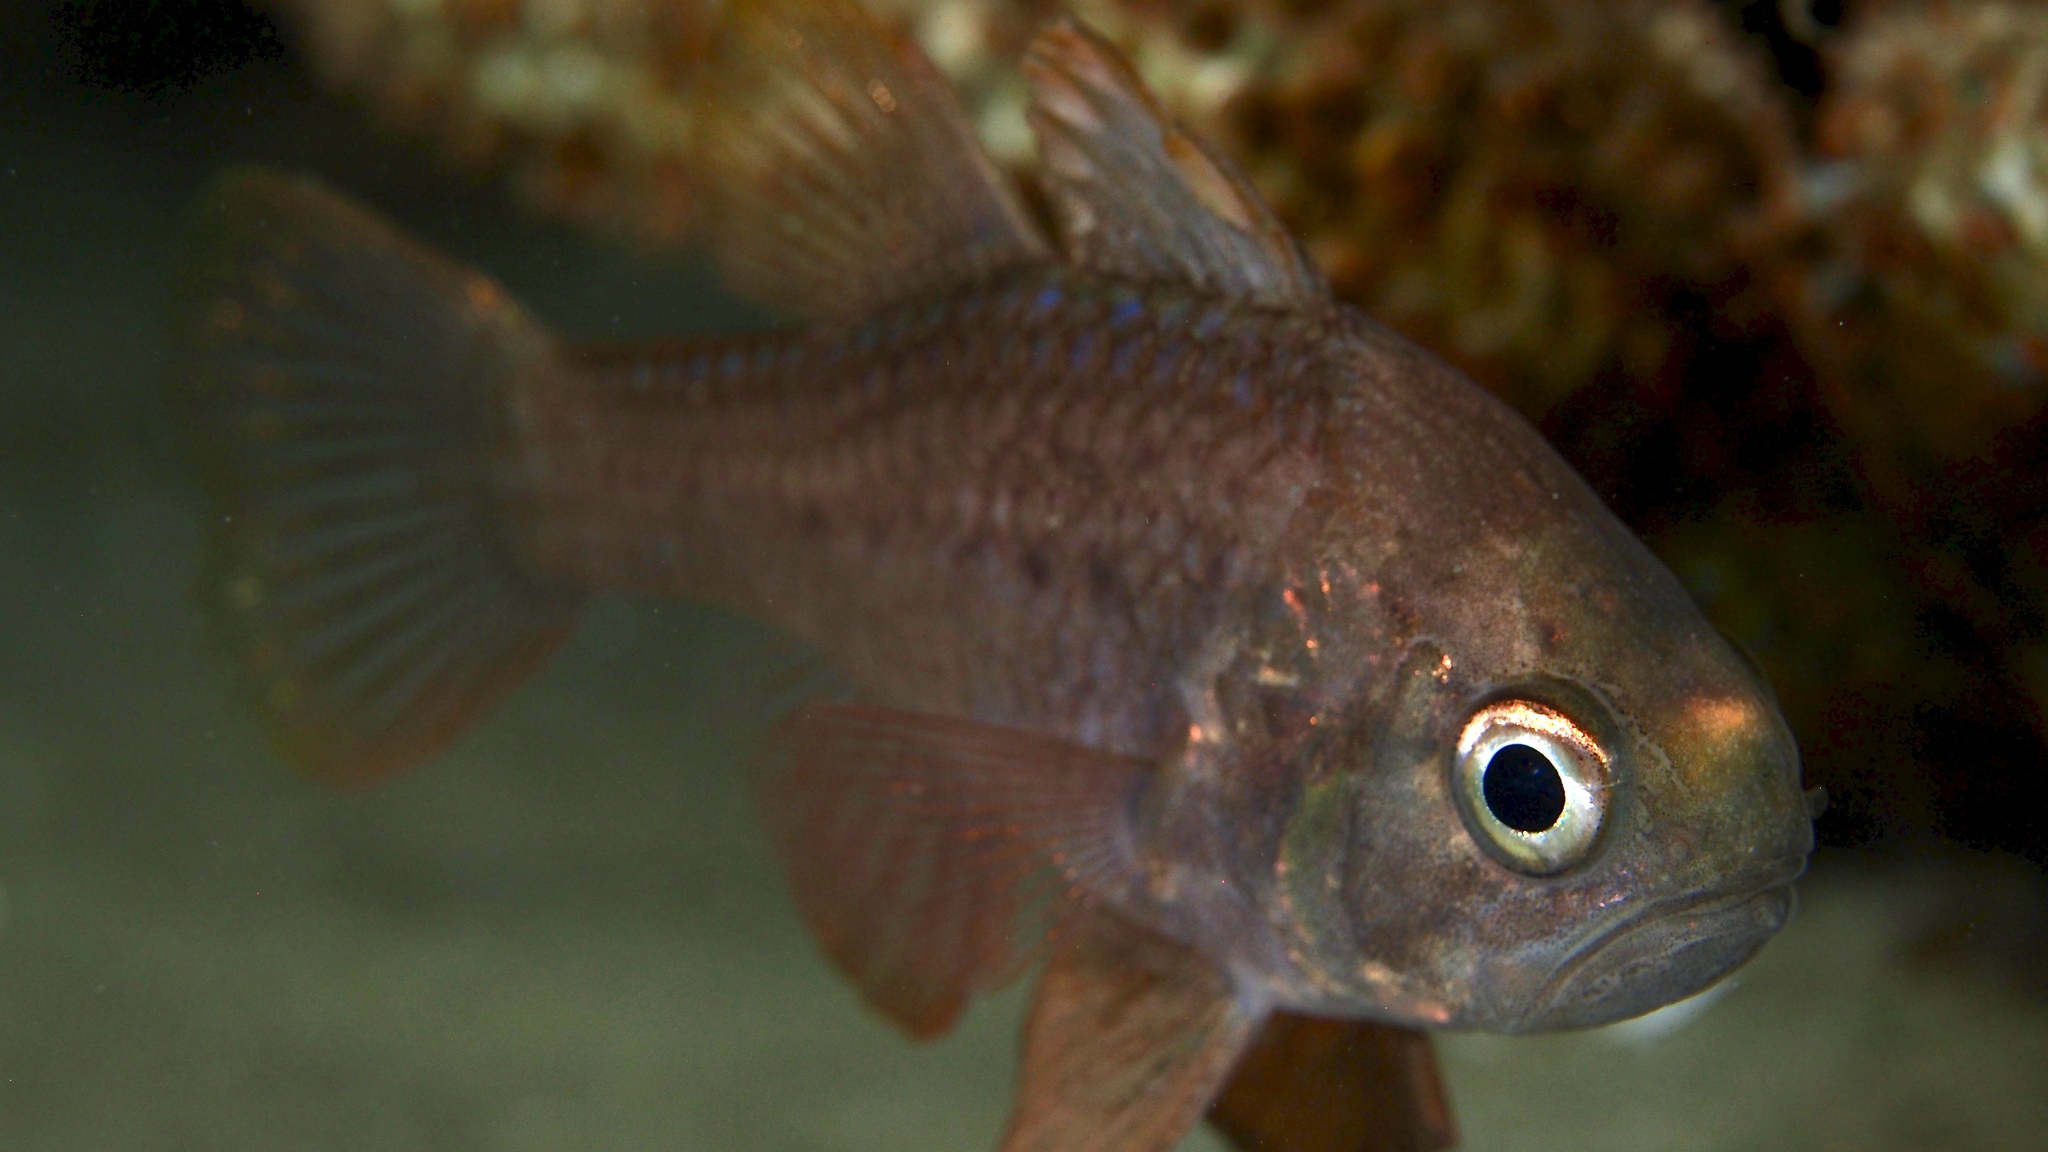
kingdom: Animalia
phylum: Chordata
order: Perciformes
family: Apogonidae
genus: Vincentia
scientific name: Vincentia conspersa
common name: Orange cardinalfish
